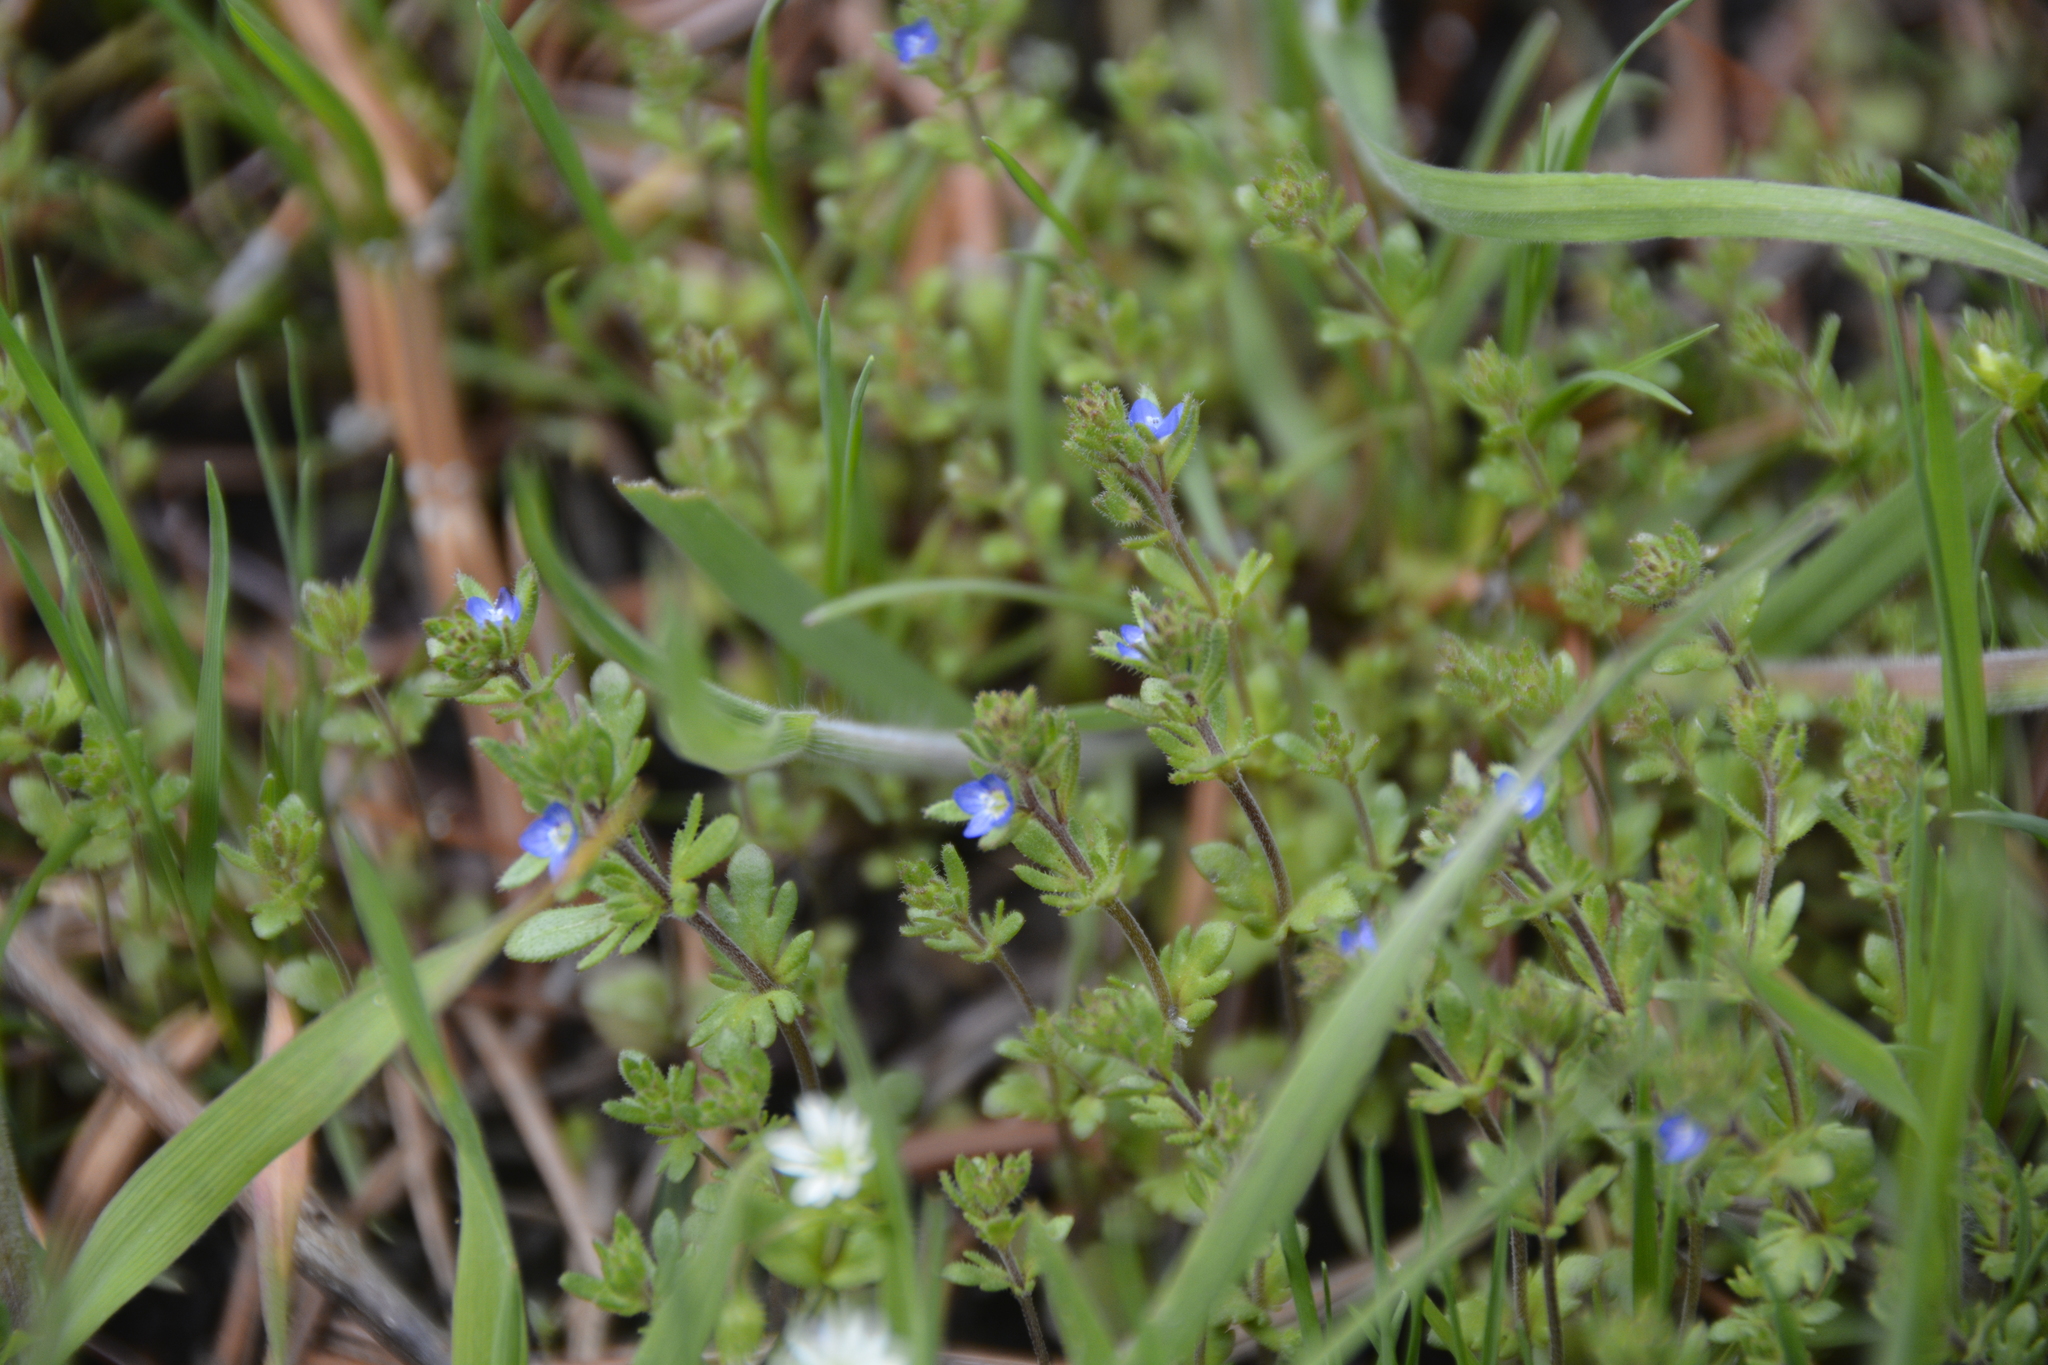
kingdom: Plantae
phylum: Tracheophyta
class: Magnoliopsida
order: Lamiales
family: Plantaginaceae
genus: Veronica
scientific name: Veronica arvensis
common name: Corn speedwell
